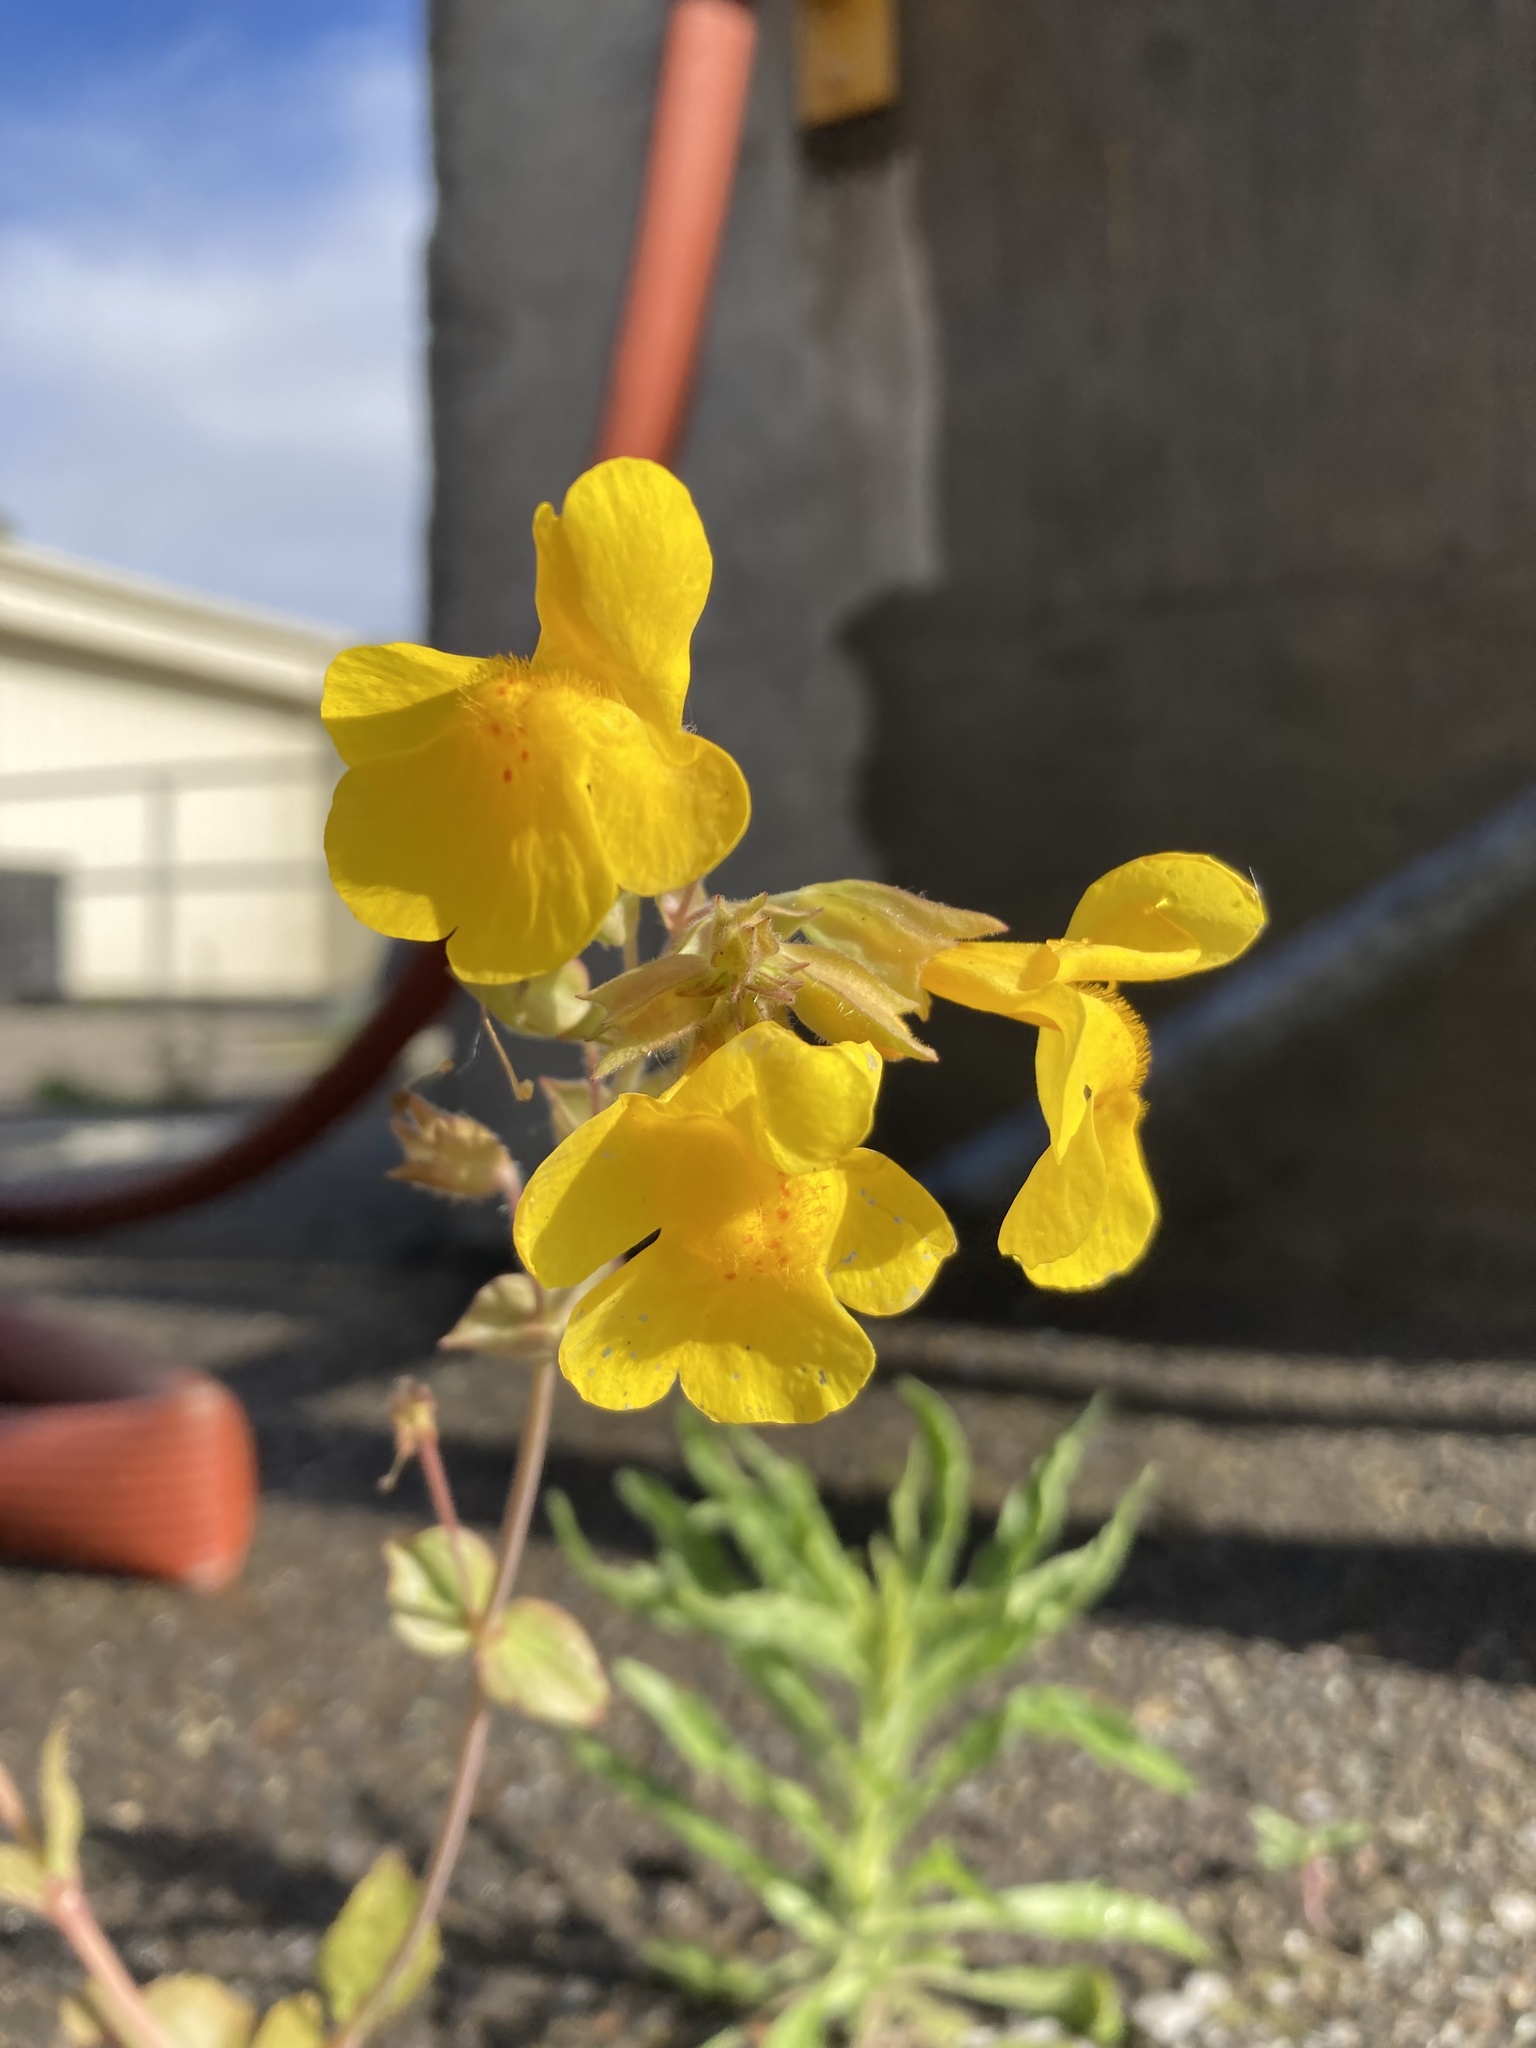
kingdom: Plantae
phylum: Tracheophyta
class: Magnoliopsida
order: Lamiales
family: Phrymaceae
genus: Erythranthe
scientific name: Erythranthe guttata
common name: Monkeyflower
